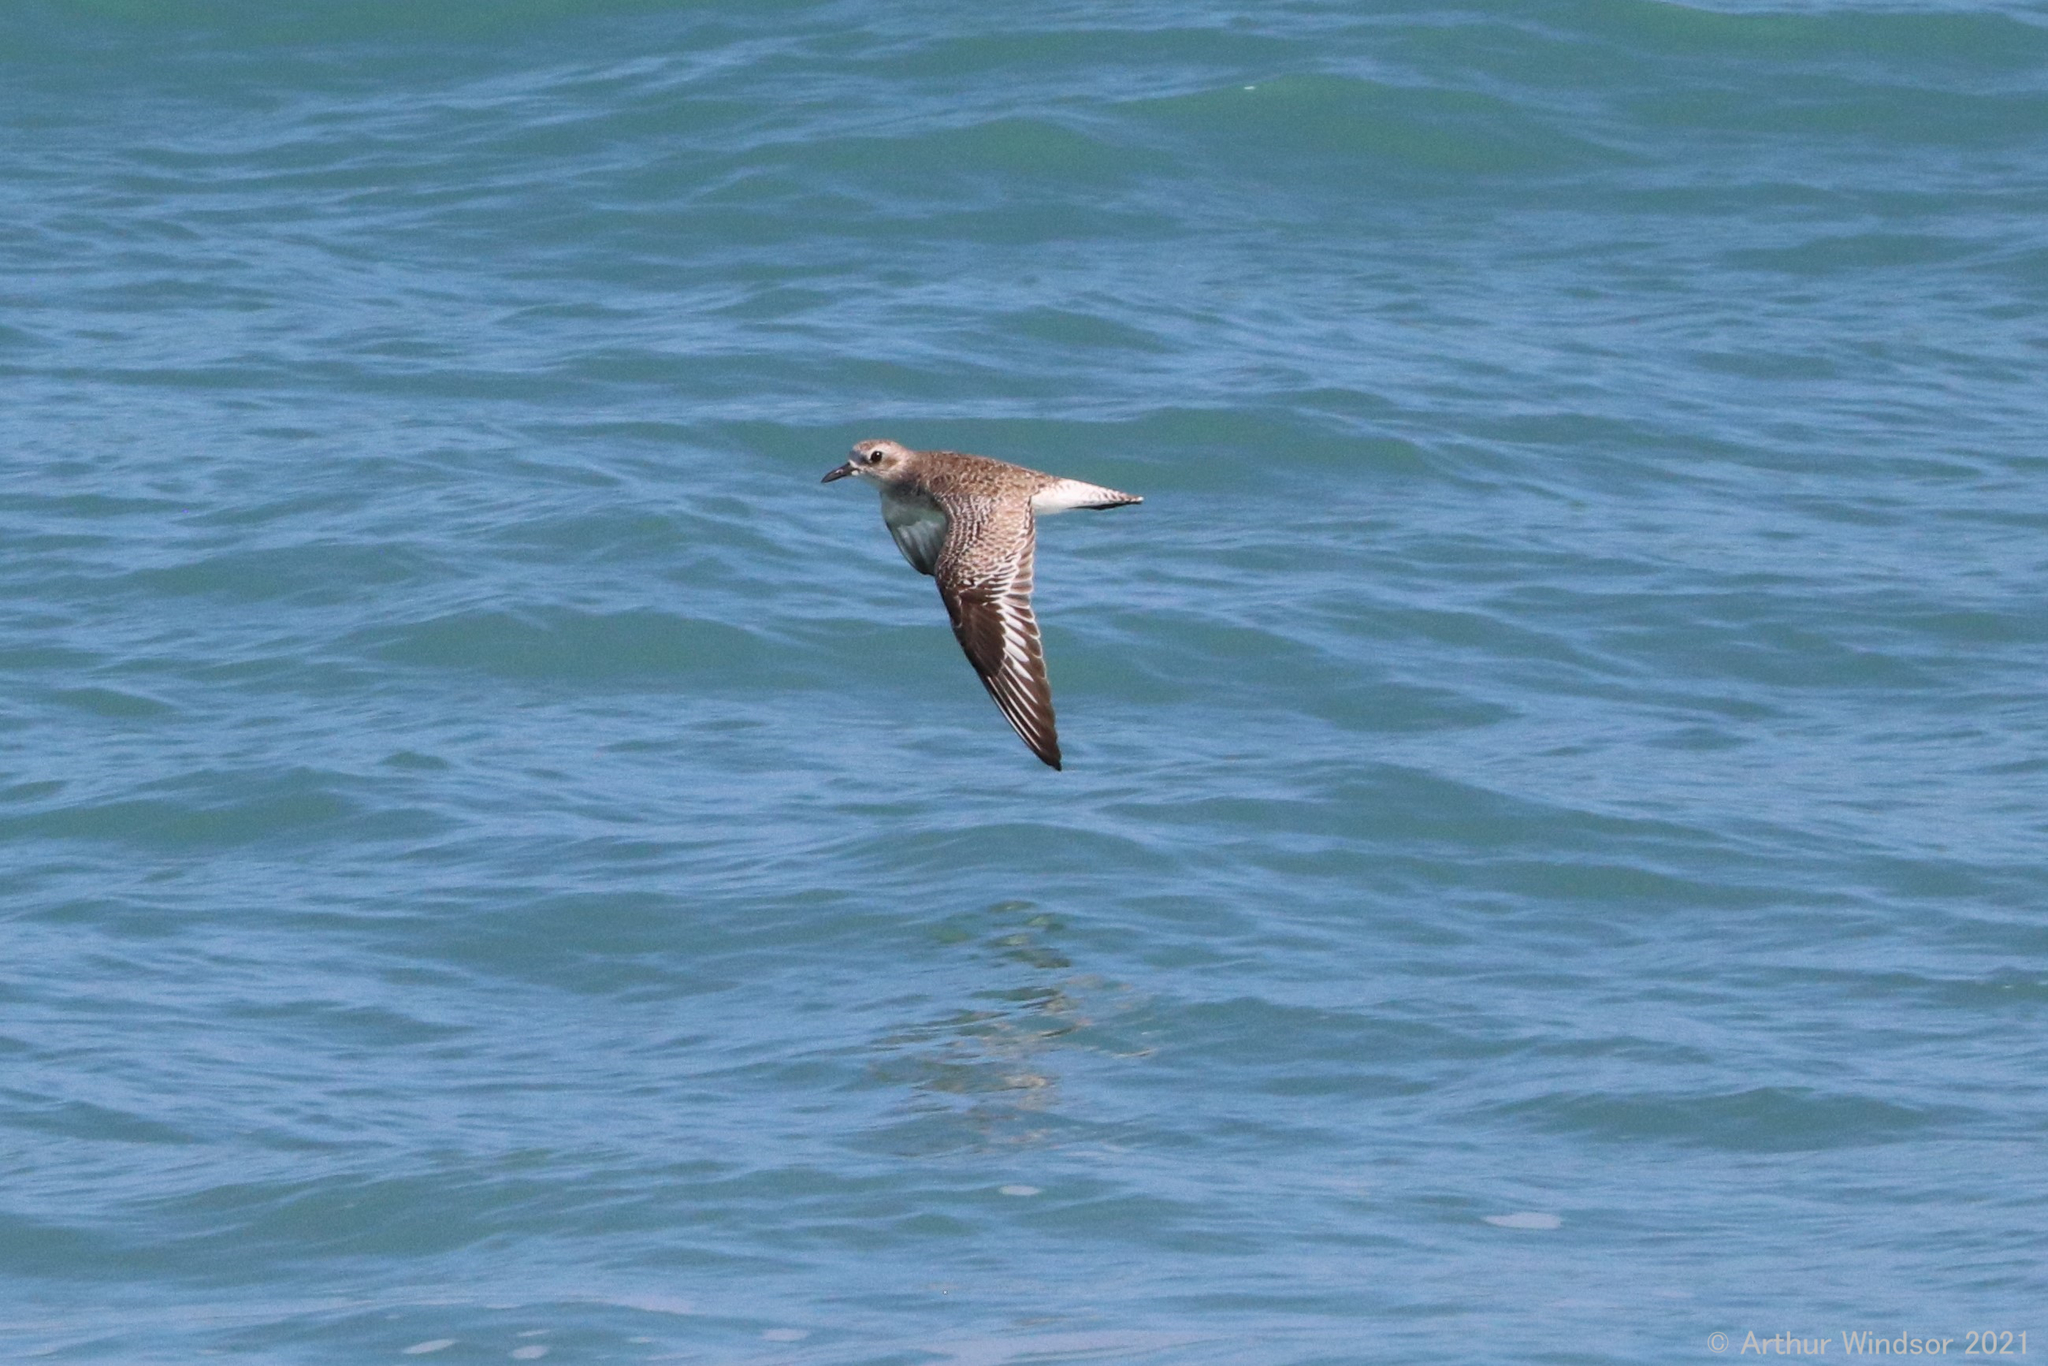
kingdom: Animalia
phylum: Chordata
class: Aves
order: Charadriiformes
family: Charadriidae
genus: Pluvialis
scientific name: Pluvialis squatarola
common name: Grey plover
